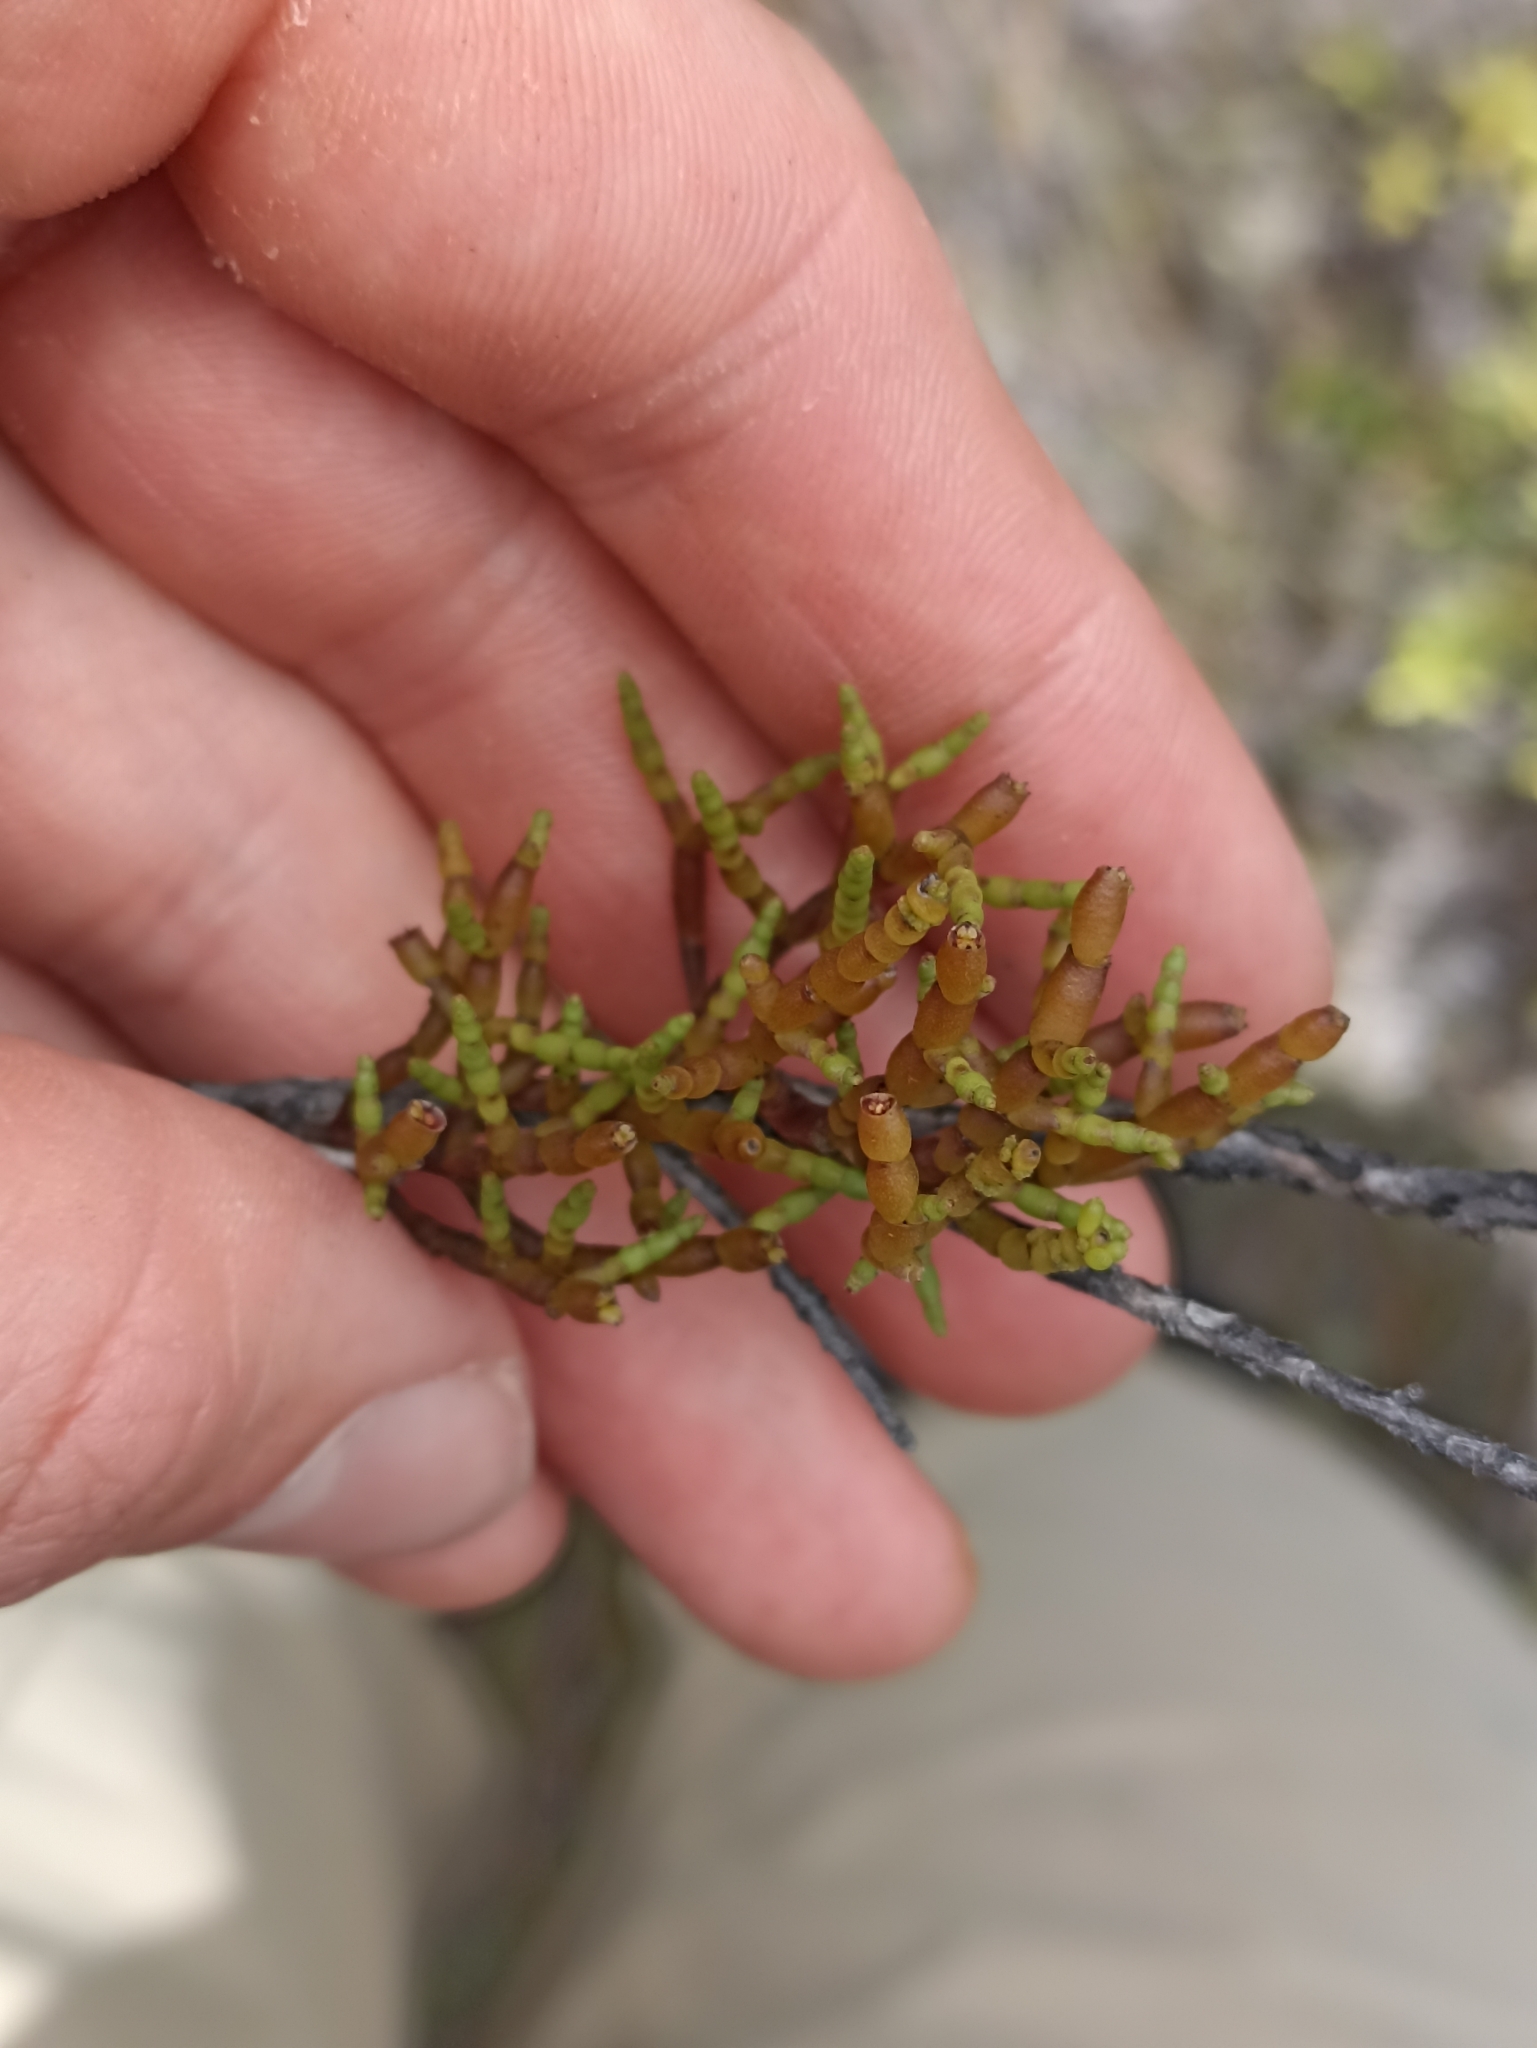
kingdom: Plantae
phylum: Tracheophyta
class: Magnoliopsida
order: Santalales
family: Viscaceae
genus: Korthalsella
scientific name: Korthalsella salicornioides
